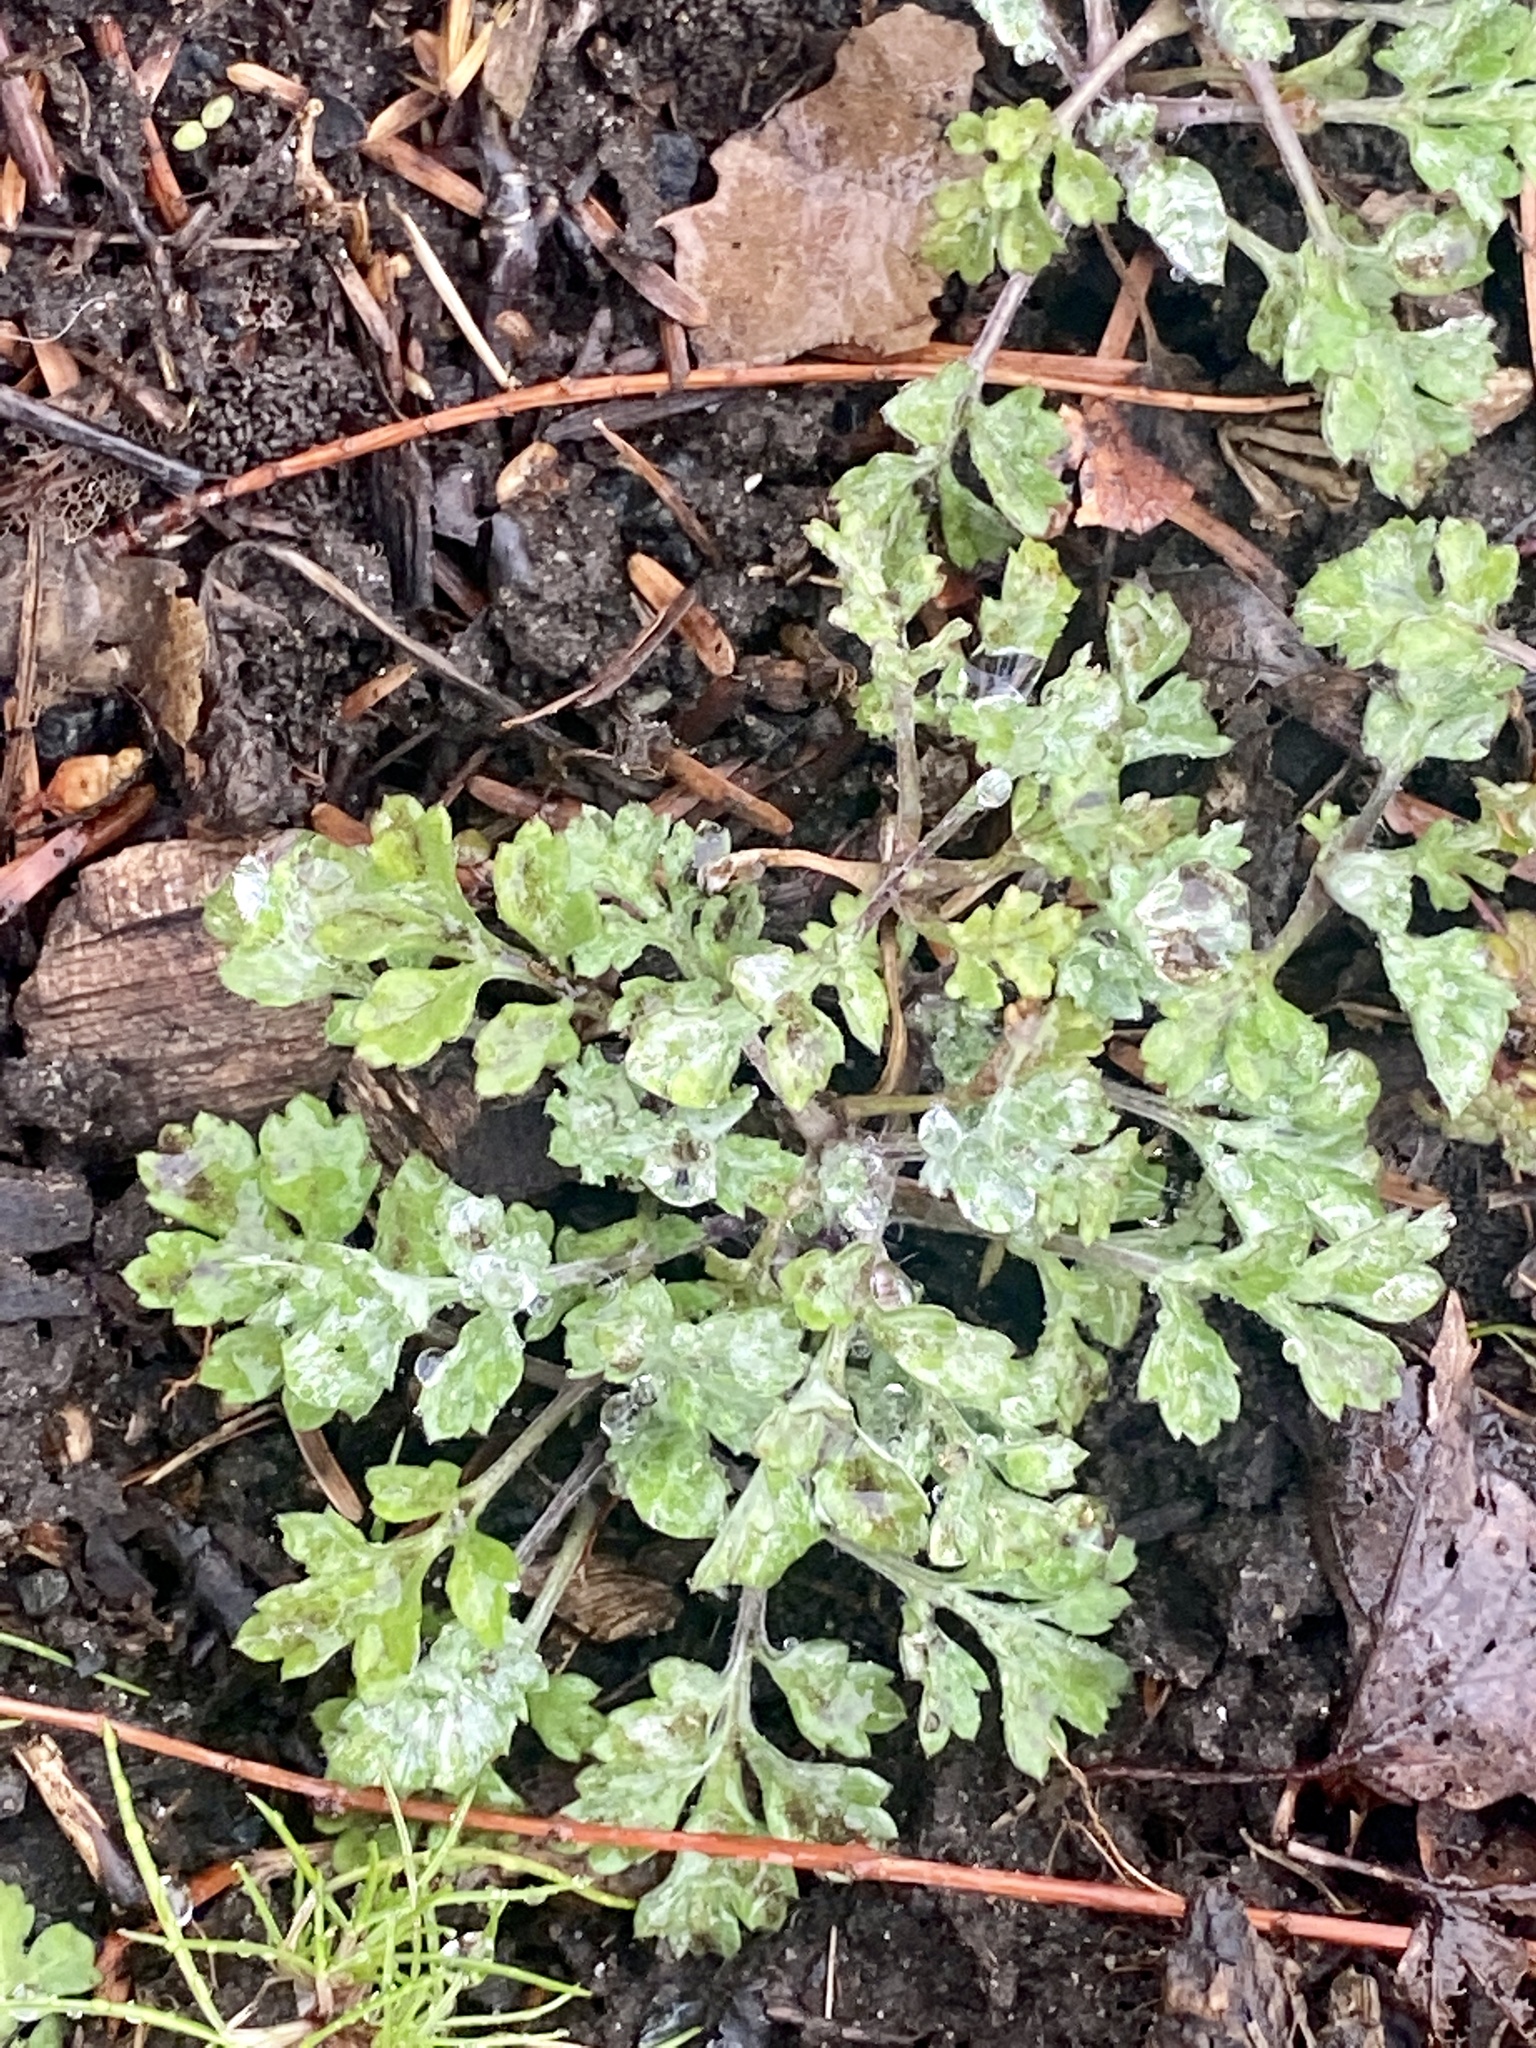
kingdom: Plantae
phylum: Tracheophyta
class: Magnoliopsida
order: Asterales
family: Asteraceae
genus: Artemisia
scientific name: Artemisia vulgaris
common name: Mugwort
